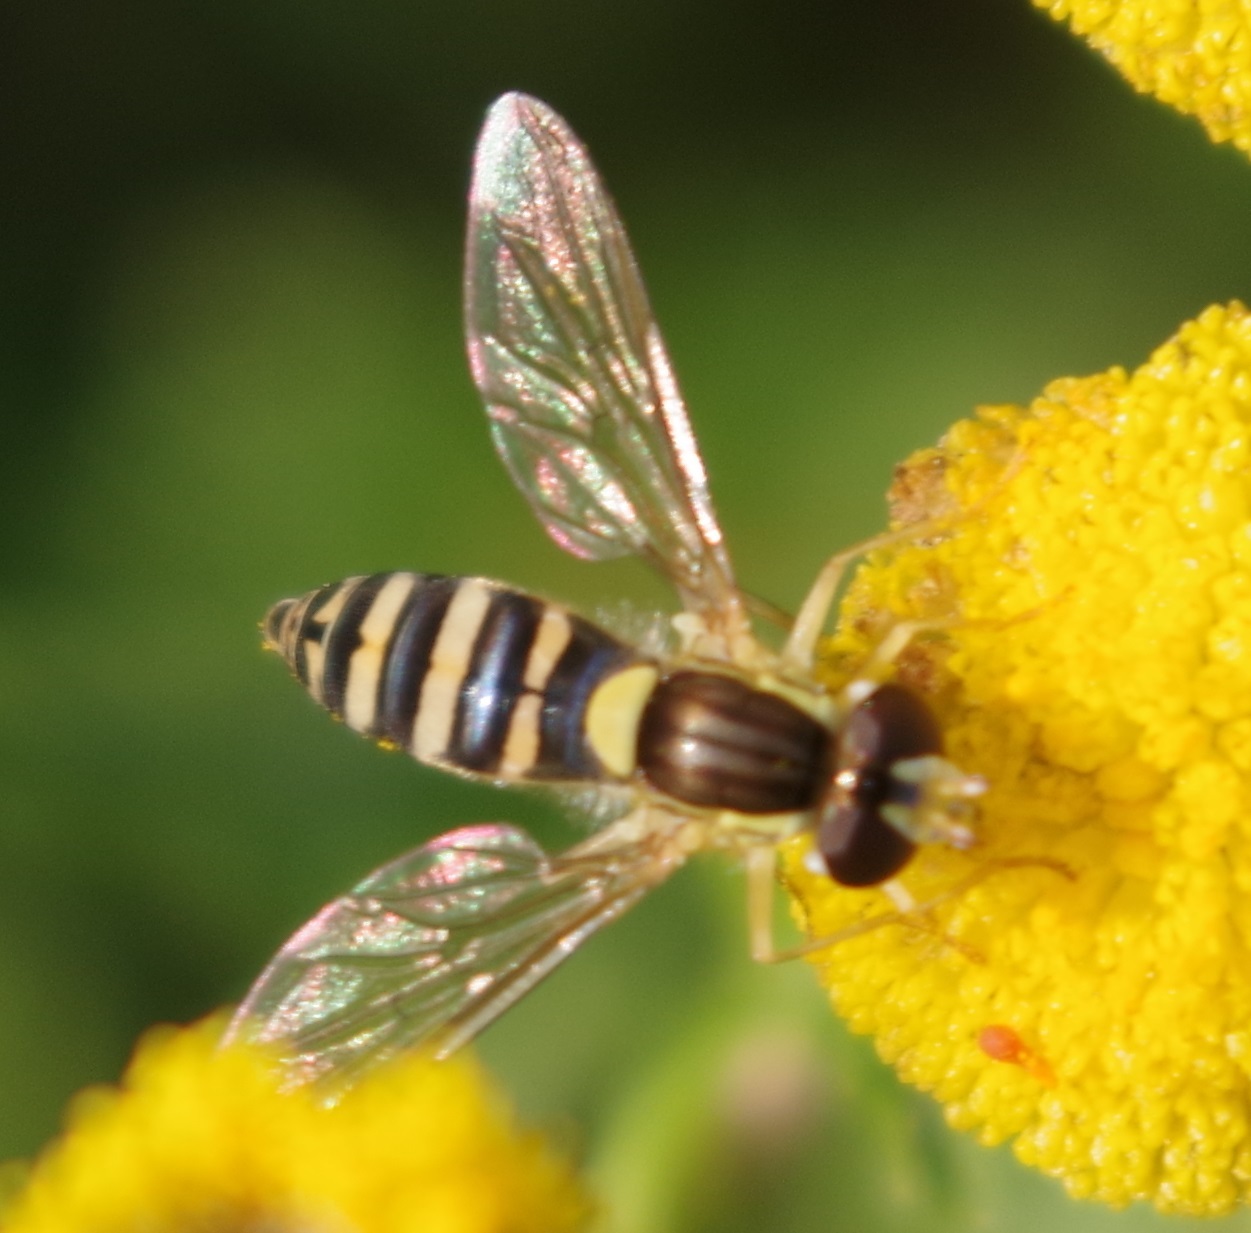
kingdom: Animalia
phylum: Arthropoda
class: Insecta
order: Diptera
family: Syrphidae
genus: Sphaerophoria
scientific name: Sphaerophoria
